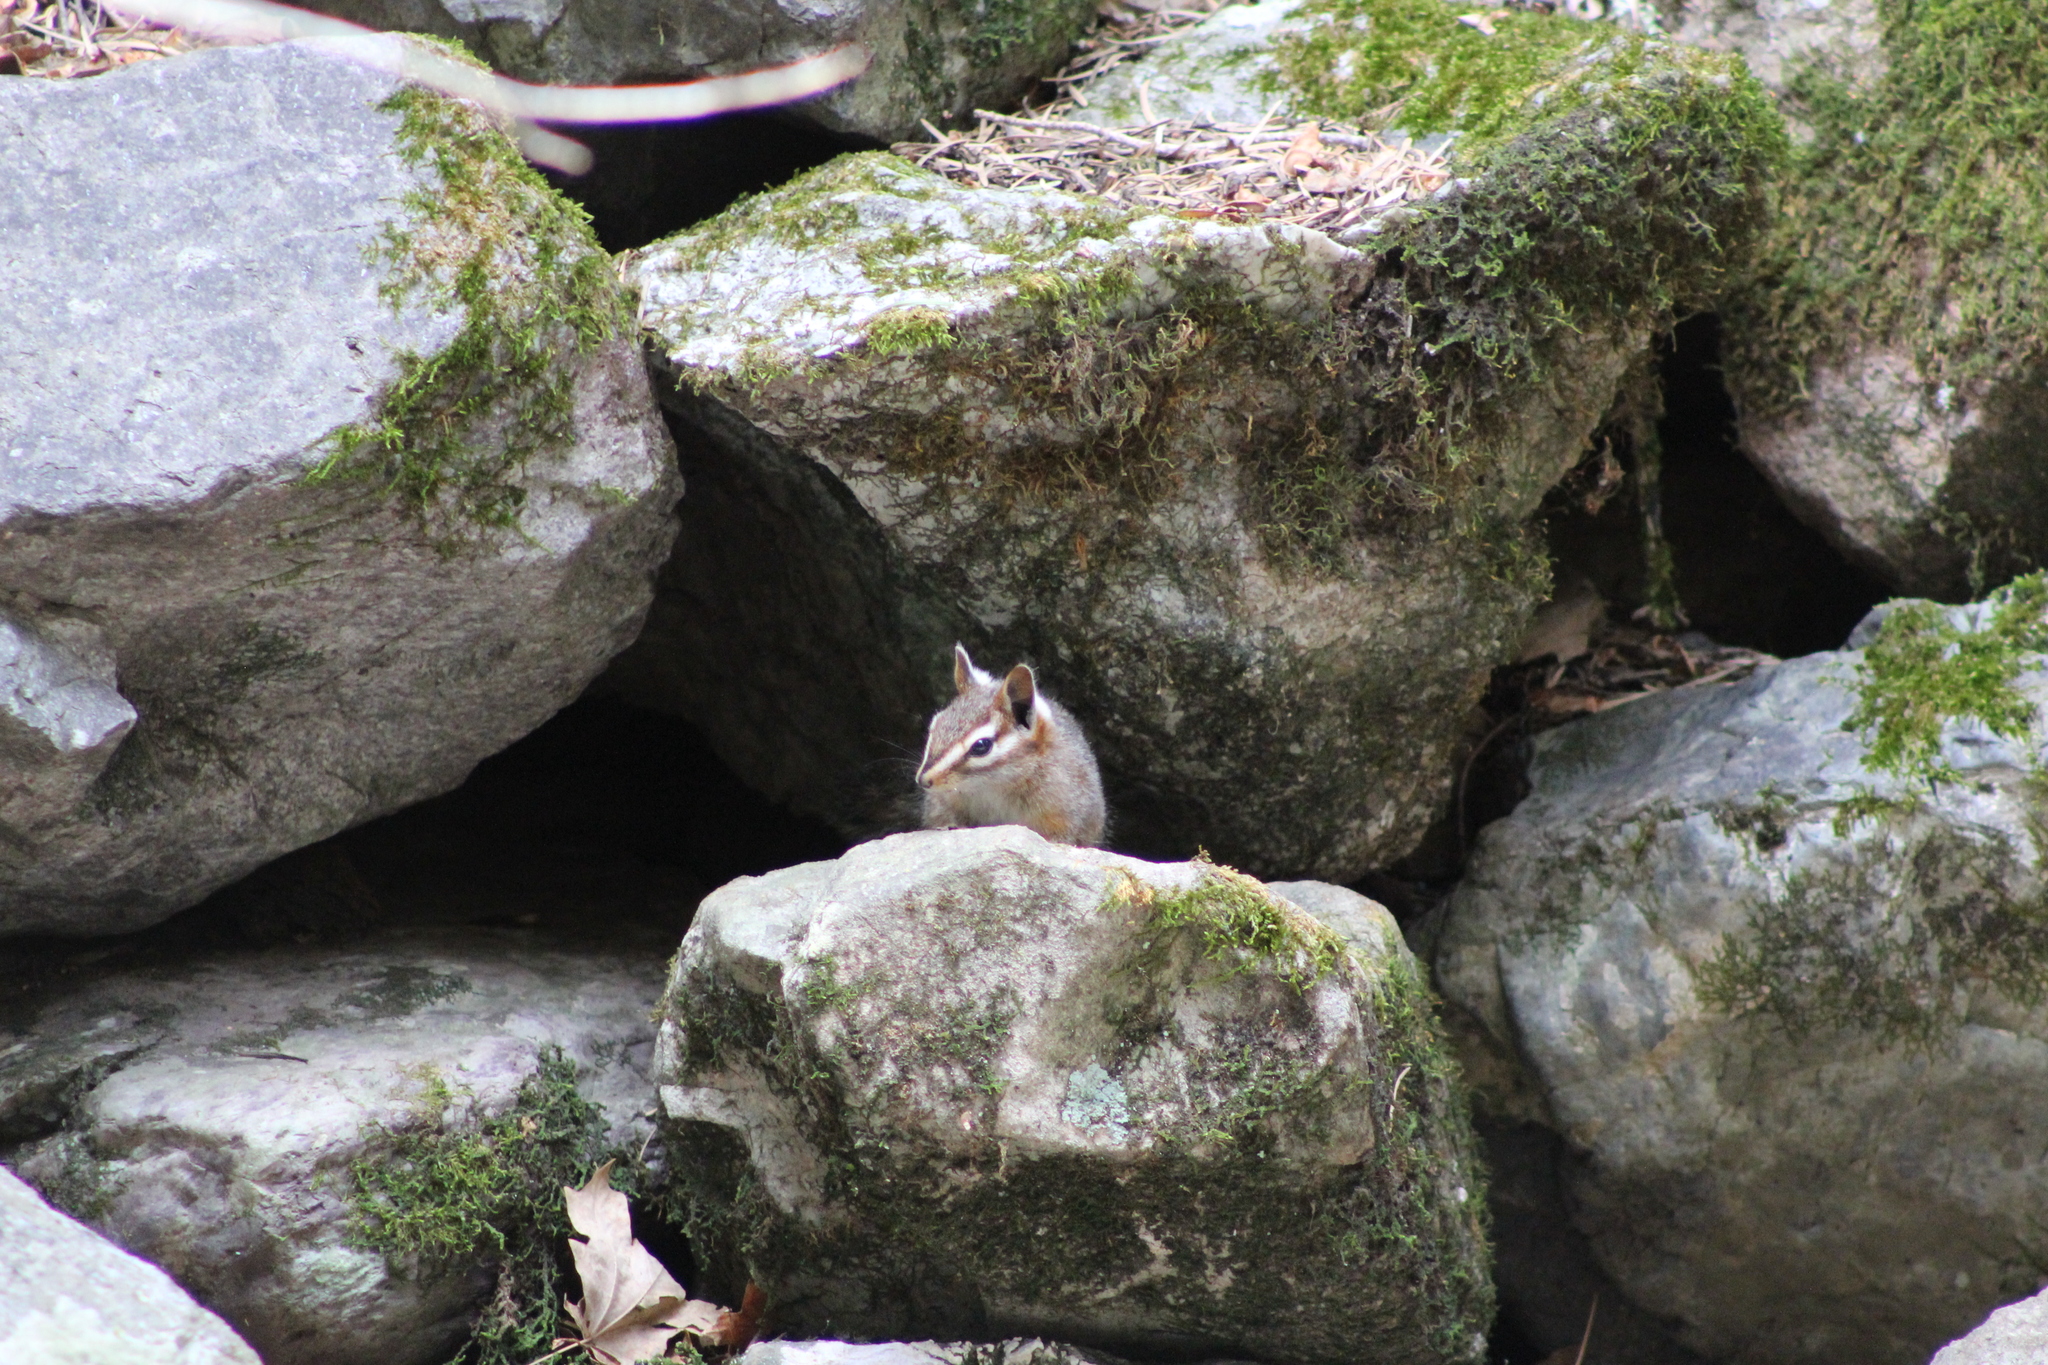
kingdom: Animalia
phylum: Chordata
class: Mammalia
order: Rodentia
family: Sciuridae
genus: Tamias
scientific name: Tamias dorsalis
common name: Cliff chipmunk
